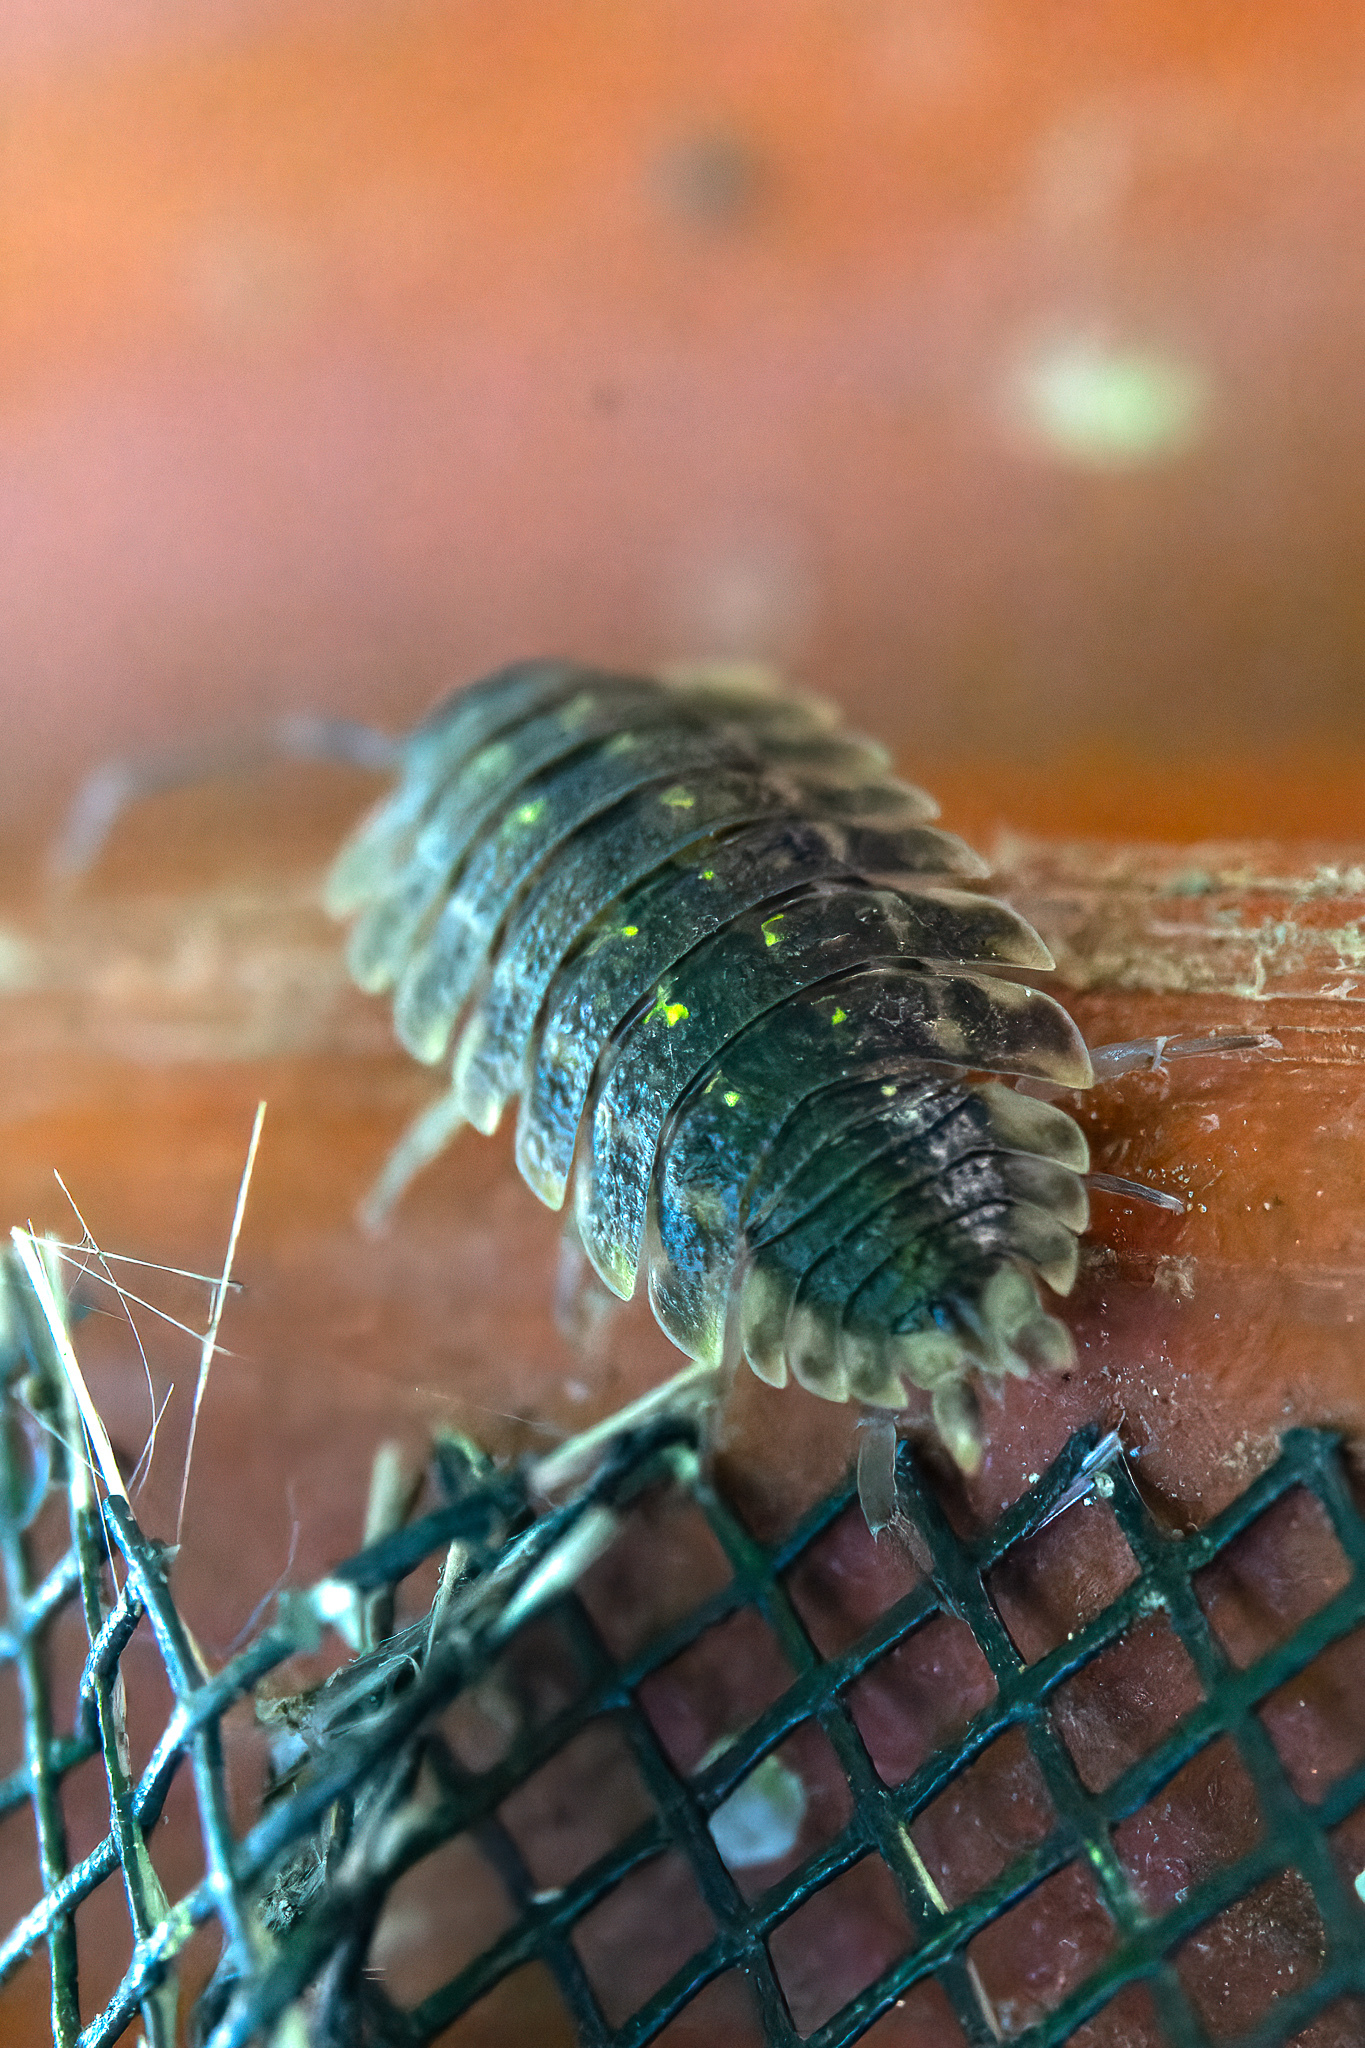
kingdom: Animalia
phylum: Arthropoda
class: Malacostraca
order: Isopoda
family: Porcellionidae
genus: Porcellio
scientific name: Porcellio spinicornis
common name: Painted woodlouse
